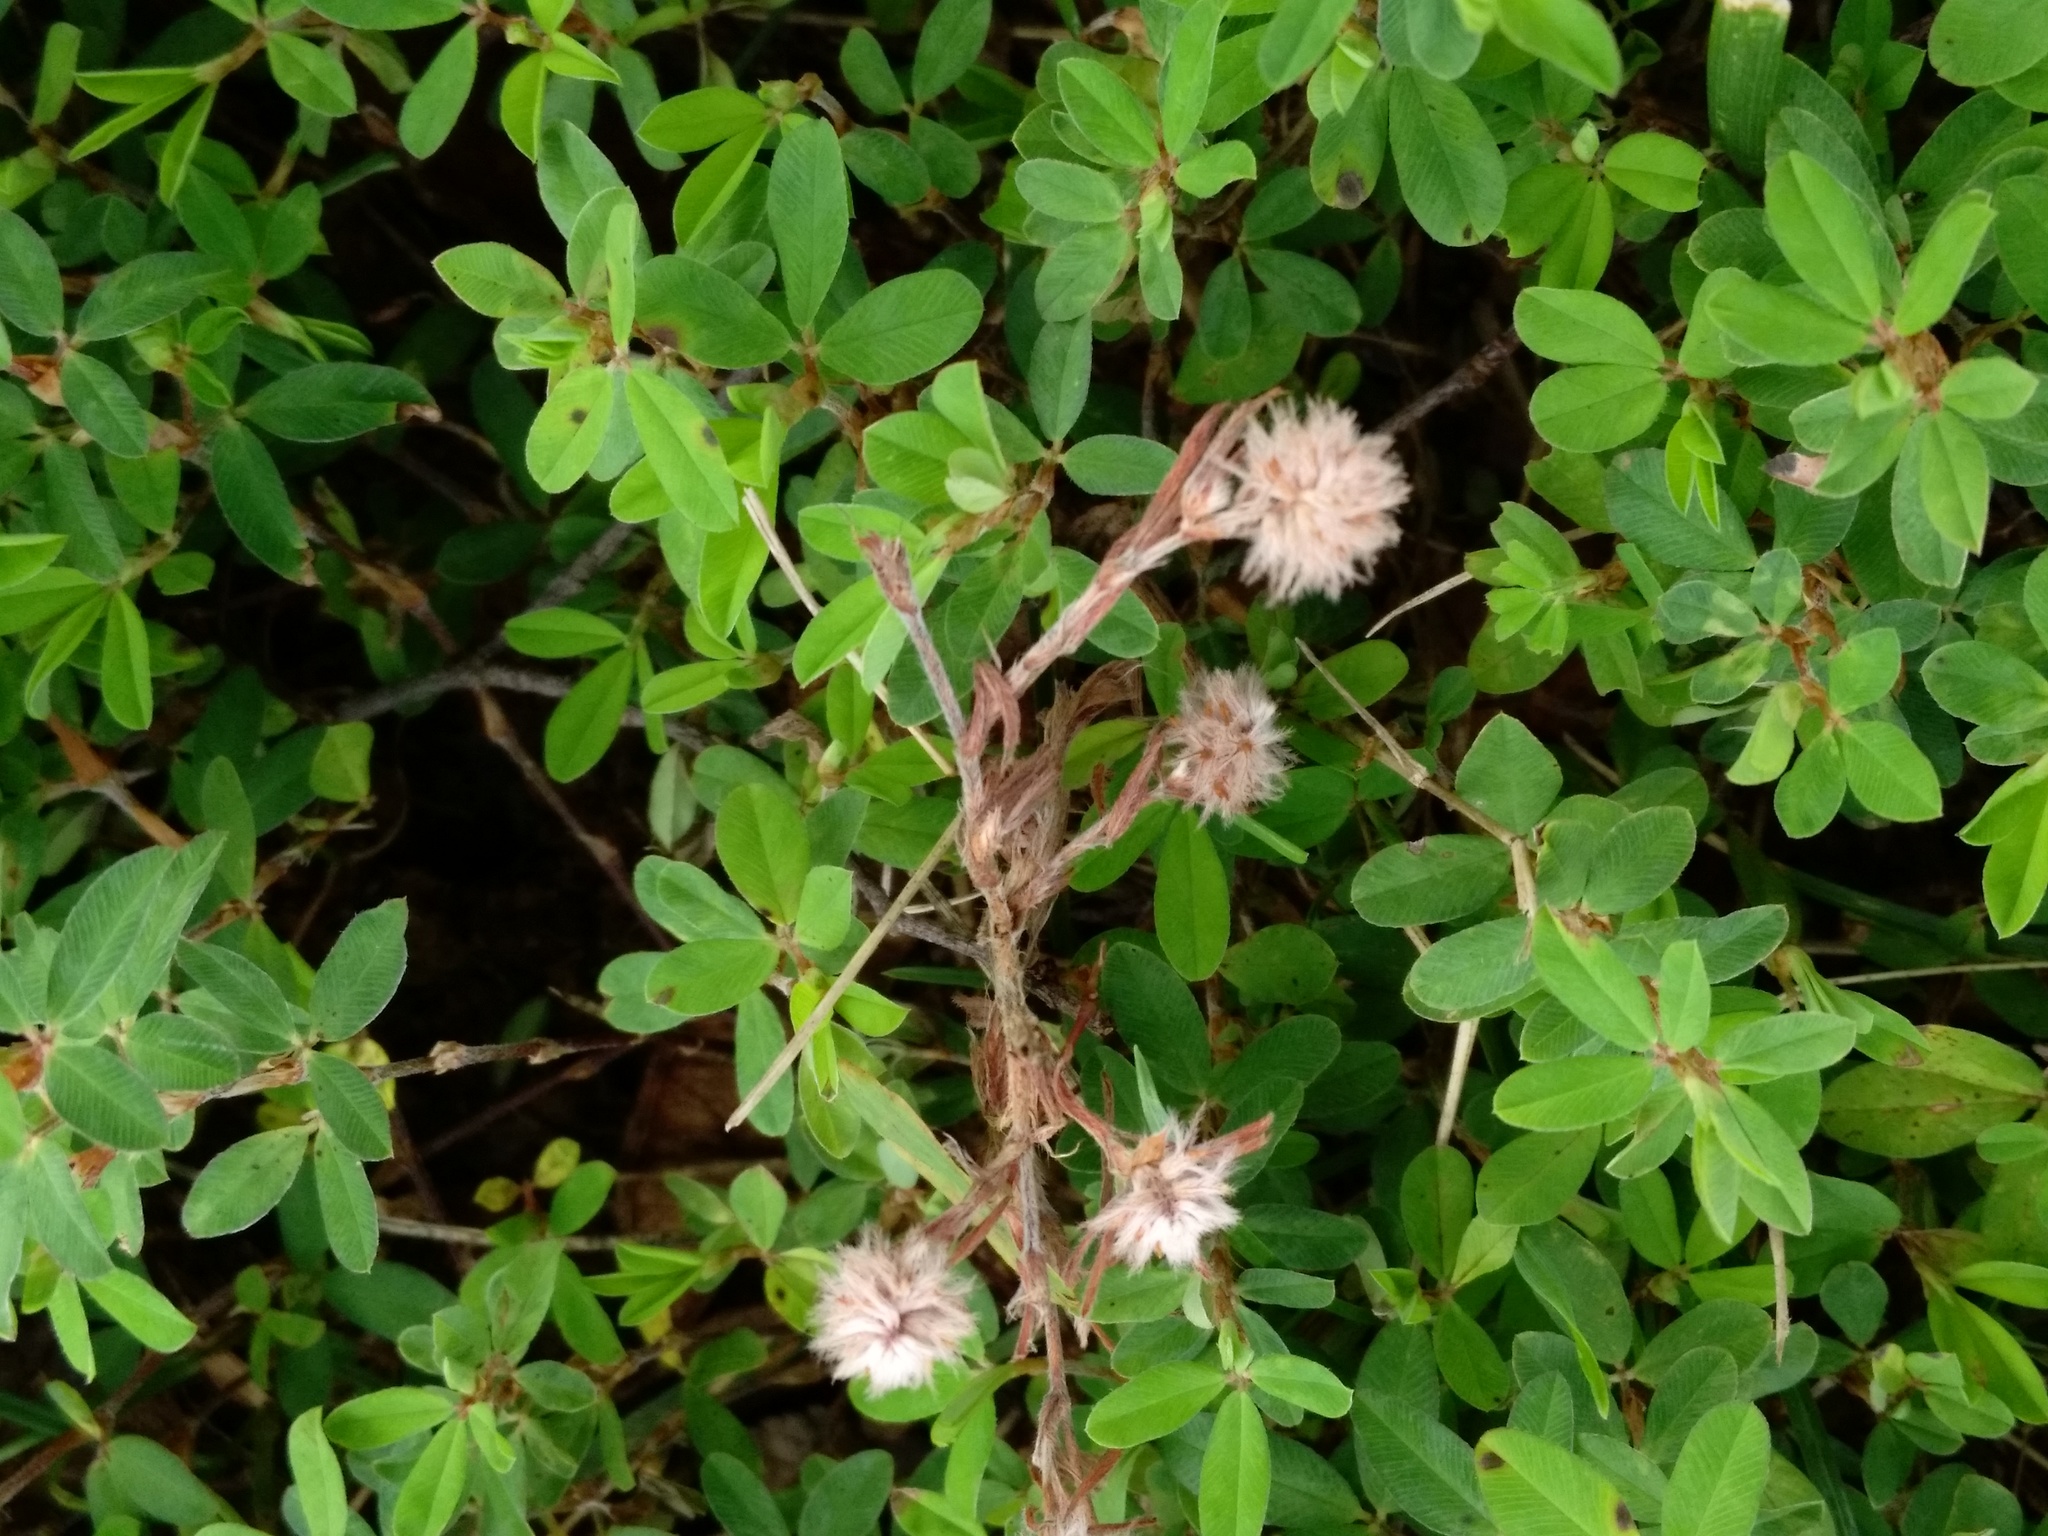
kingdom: Plantae
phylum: Tracheophyta
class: Magnoliopsida
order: Fabales
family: Fabaceae
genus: Trifolium
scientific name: Trifolium arvense
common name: Hare's-foot clover
